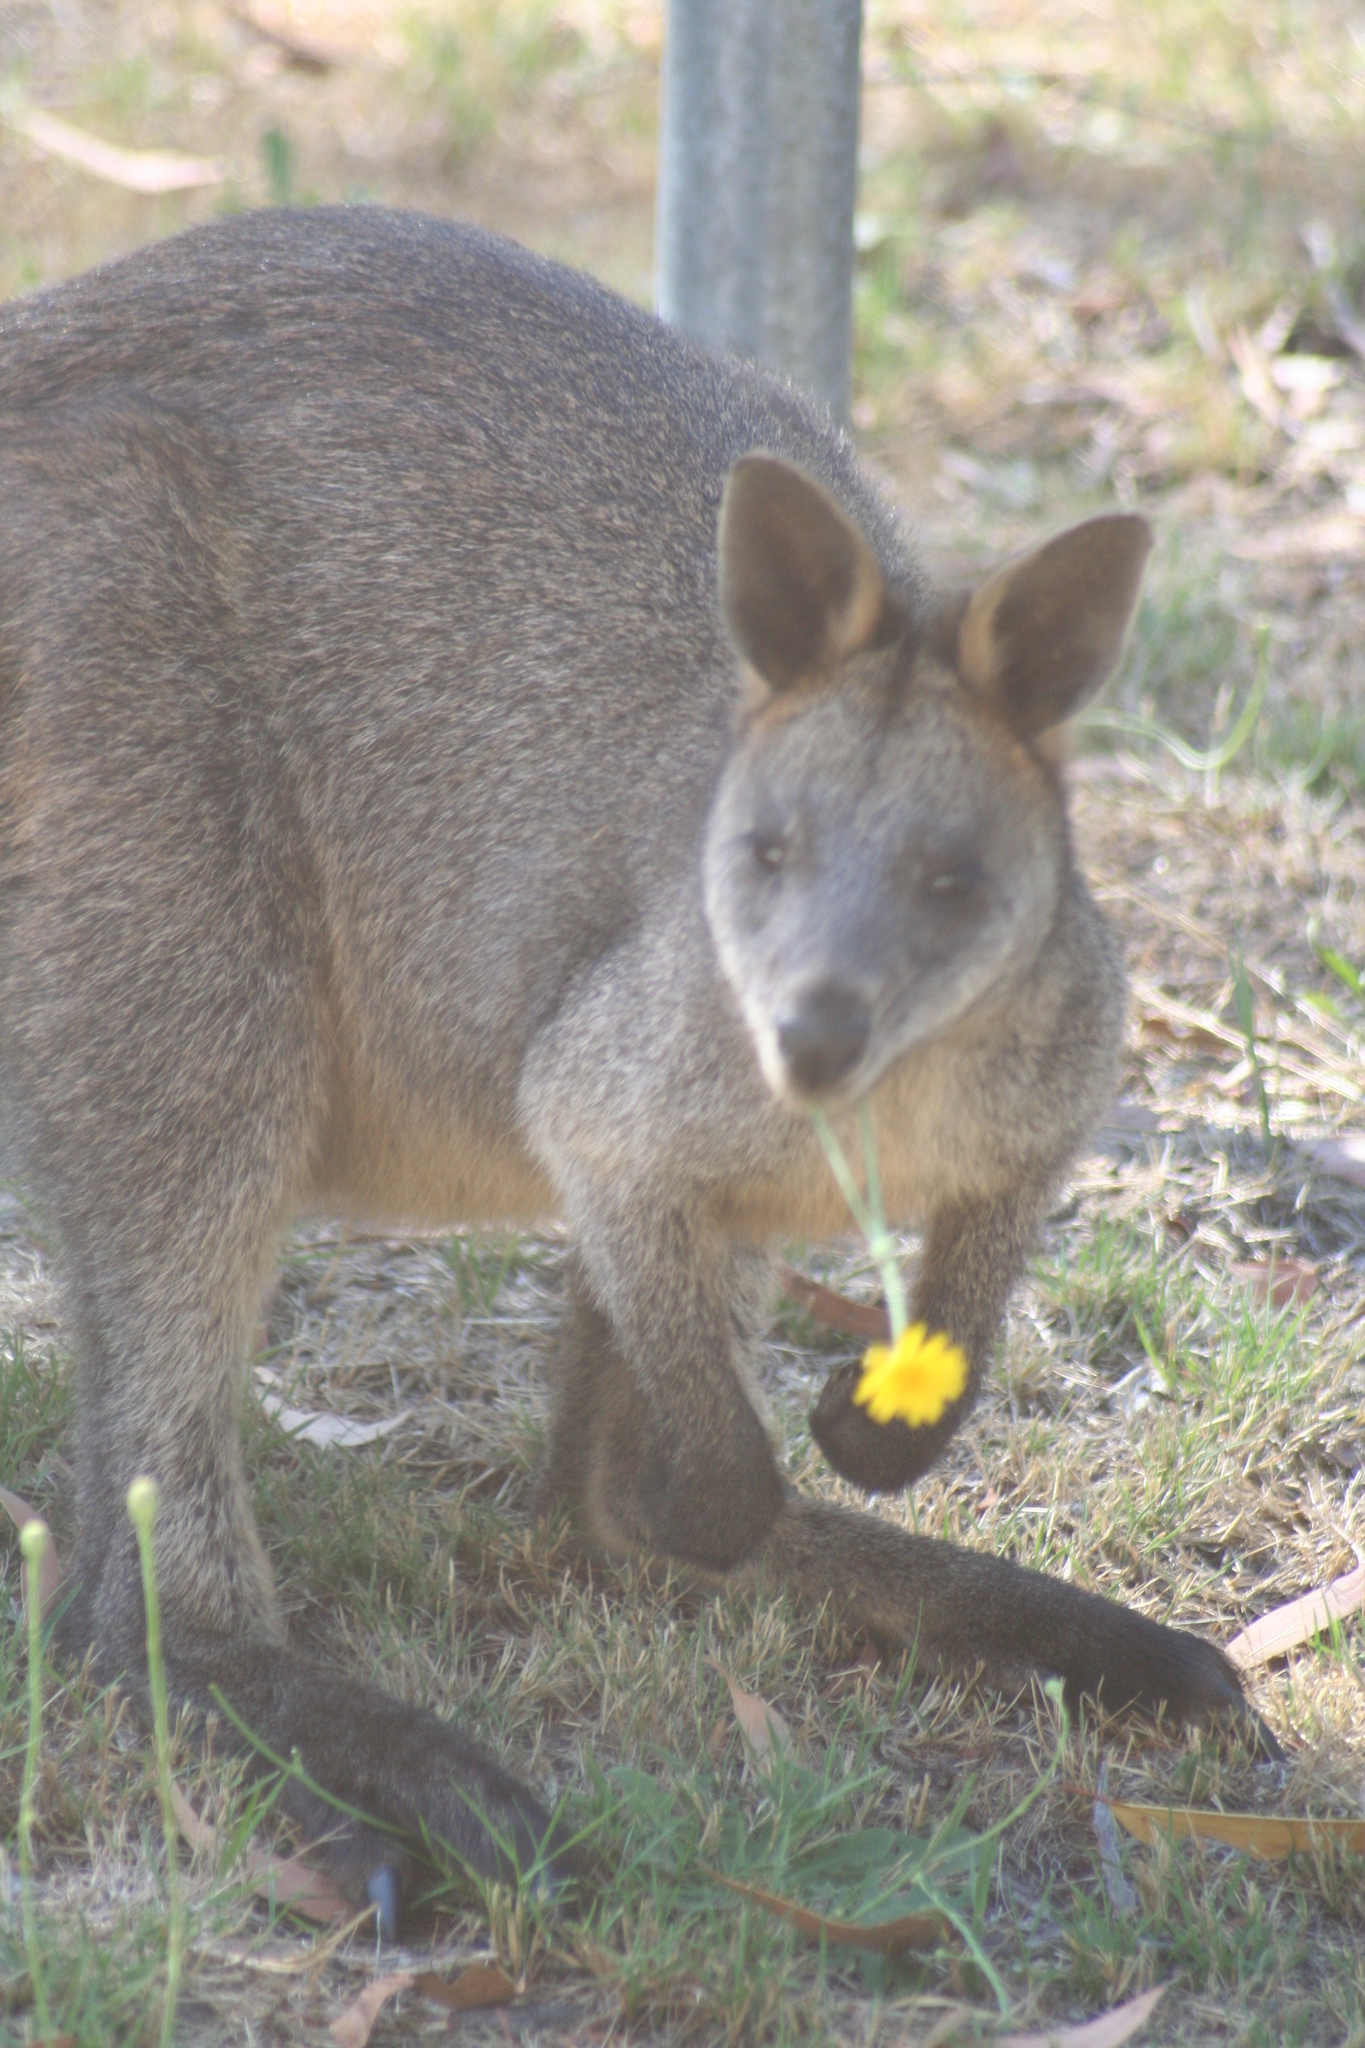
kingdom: Animalia
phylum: Chordata
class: Mammalia
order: Diprotodontia
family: Macropodidae
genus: Wallabia
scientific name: Wallabia bicolor
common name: Swamp wallaby
